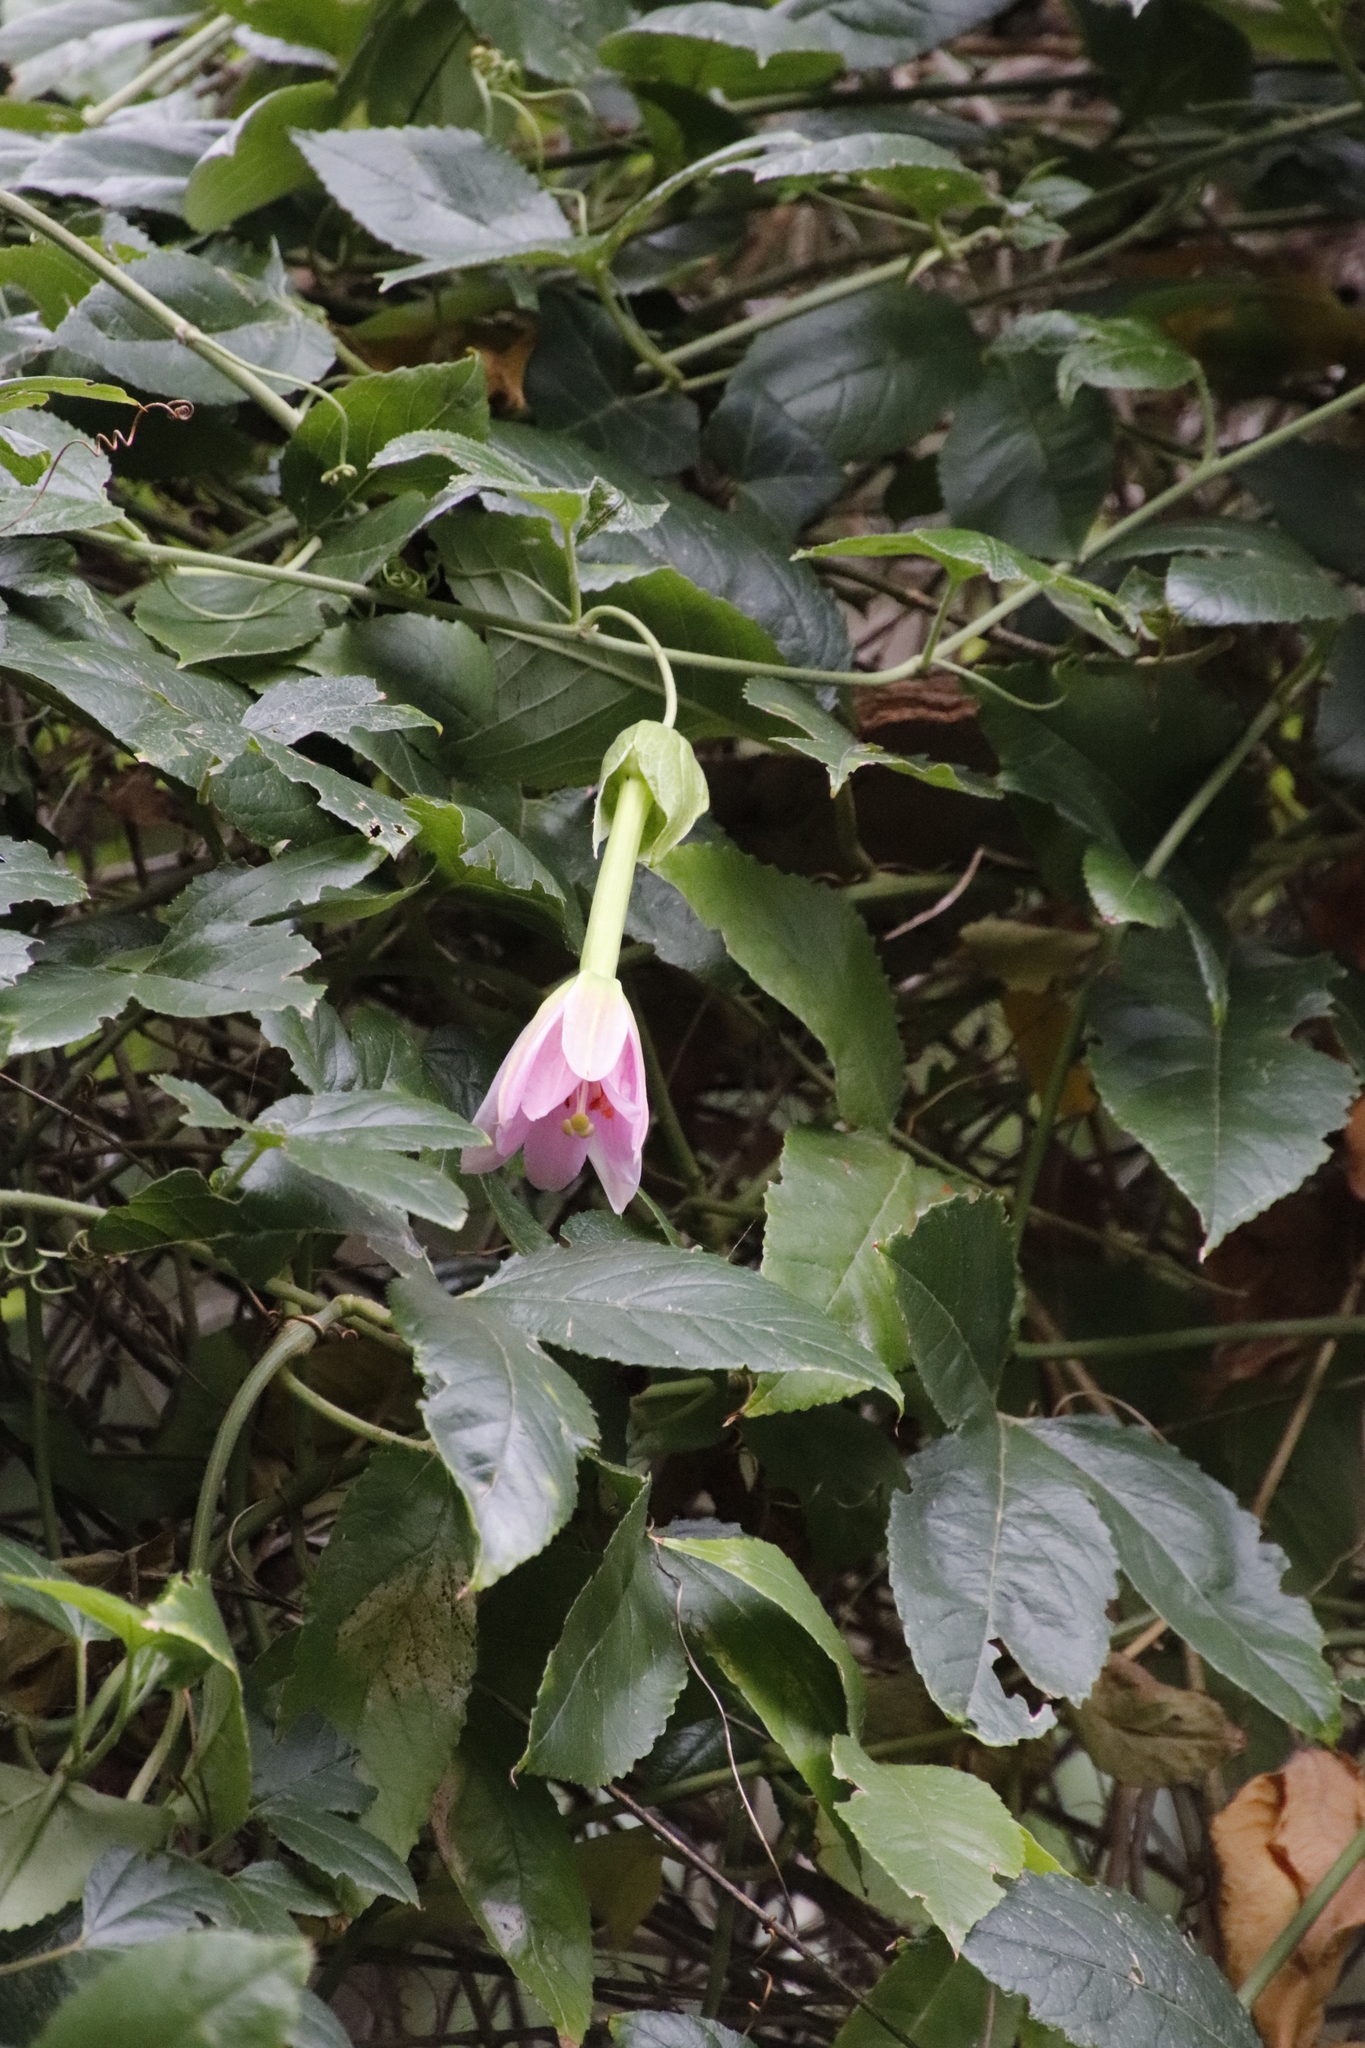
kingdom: Plantae
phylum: Tracheophyta
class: Magnoliopsida
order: Malpighiales
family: Passifloraceae
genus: Passiflora
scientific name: Passiflora tarminiana
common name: Banana poka
